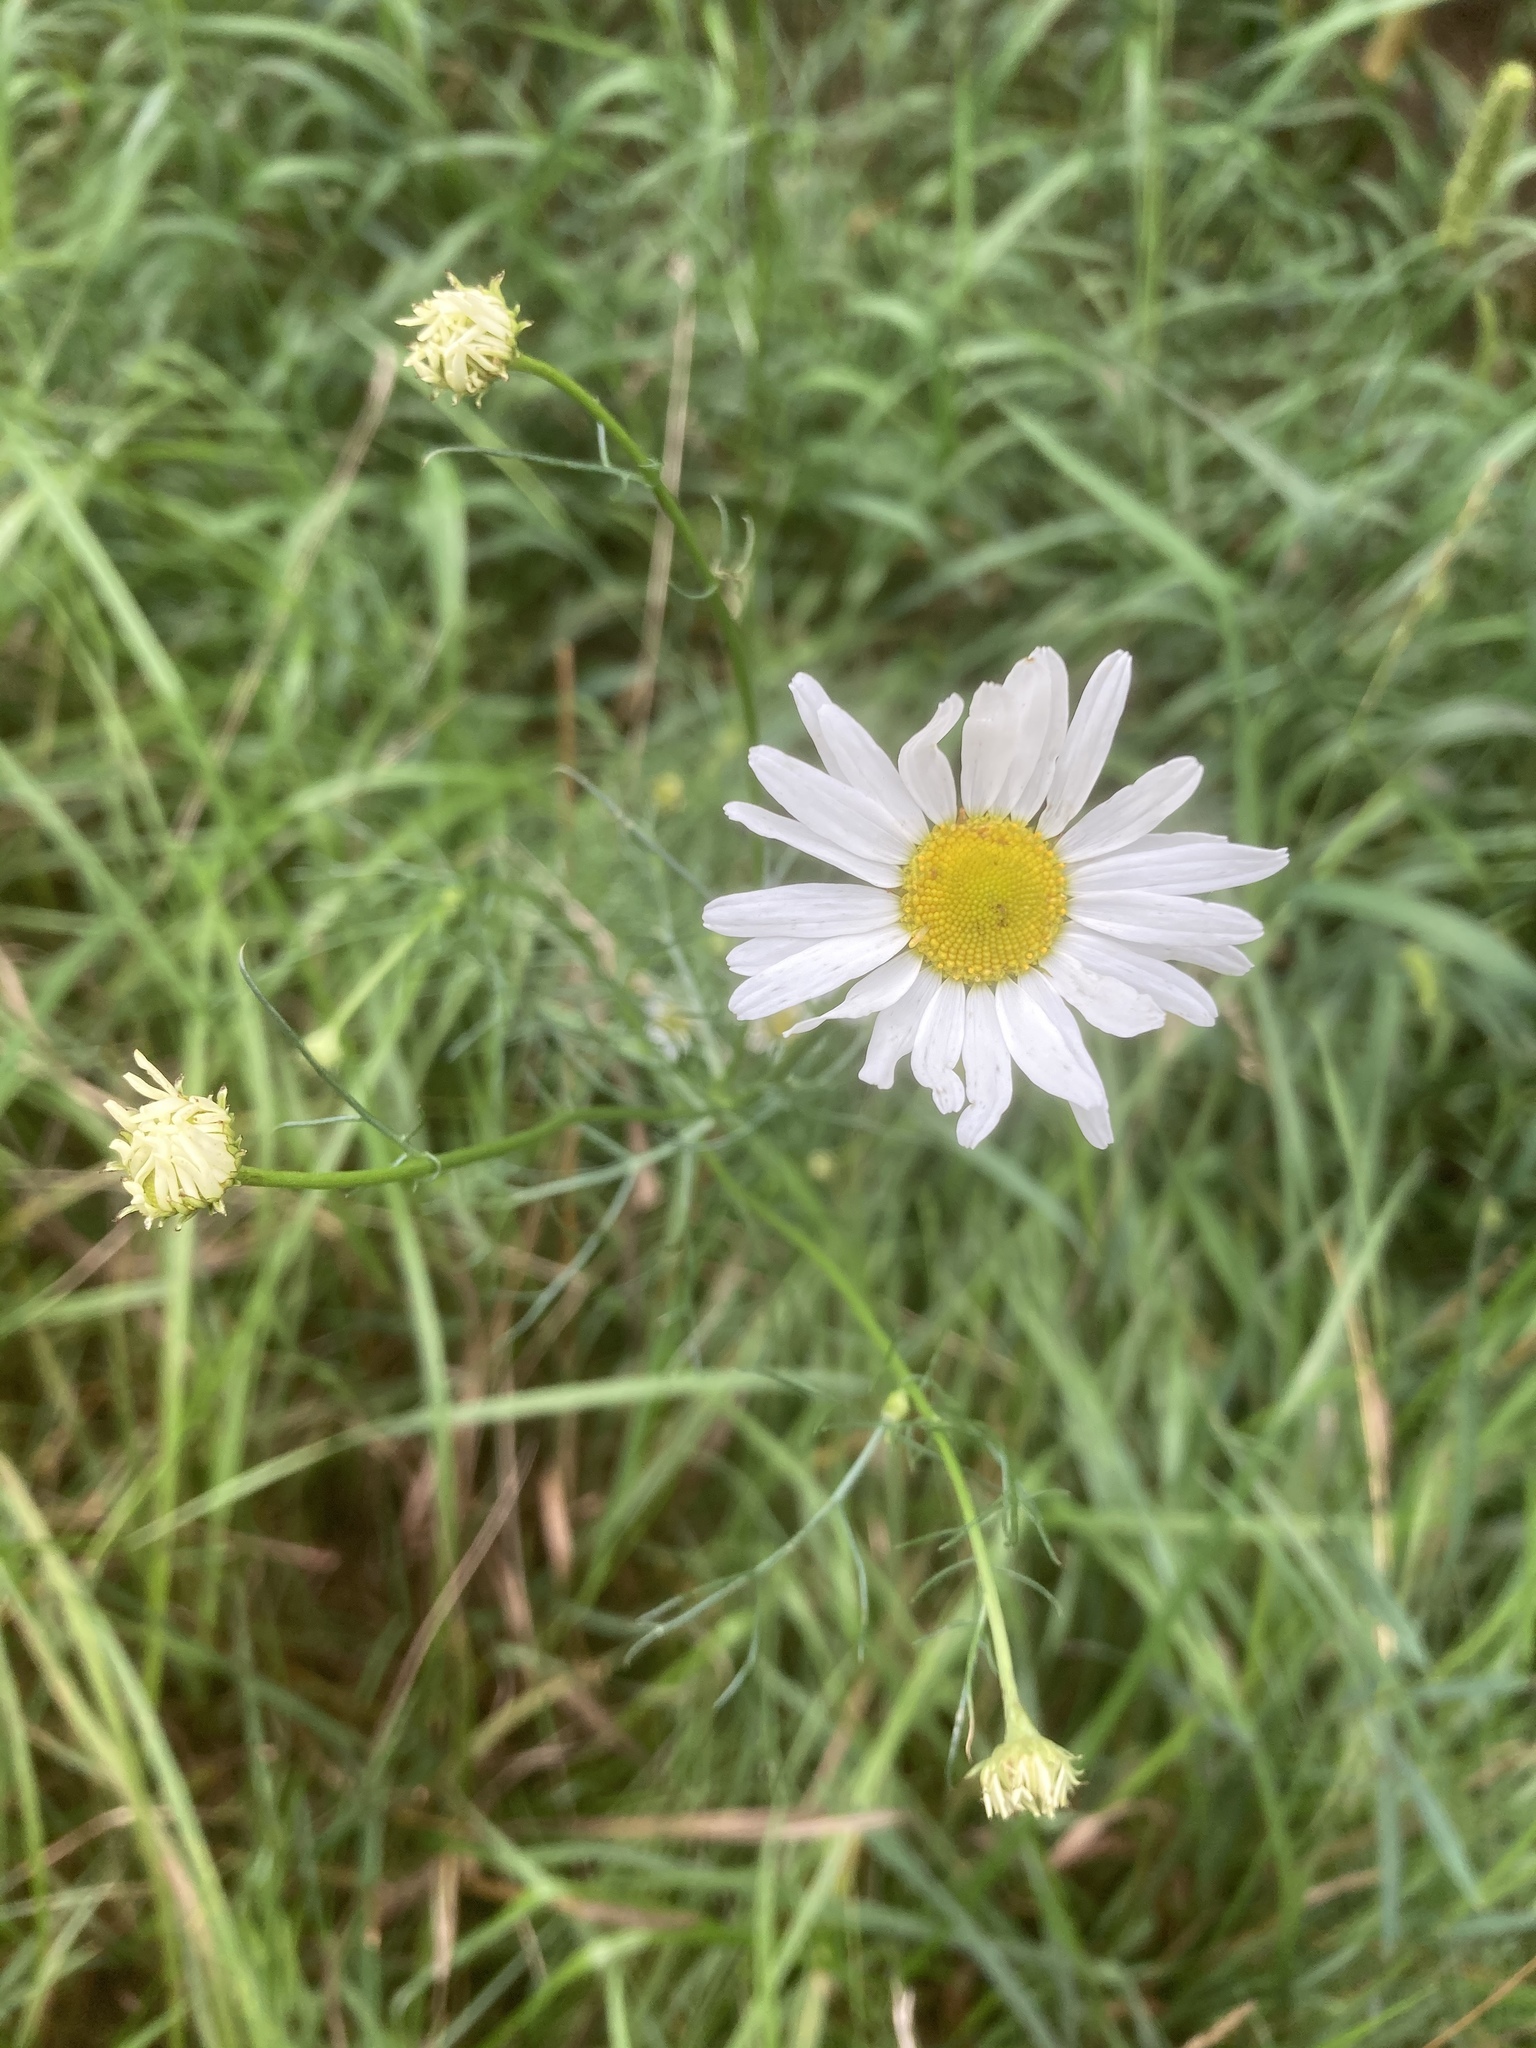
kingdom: Plantae
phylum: Tracheophyta
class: Magnoliopsida
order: Asterales
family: Asteraceae
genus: Tripleurospermum
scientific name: Tripleurospermum inodorum
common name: Scentless mayweed
